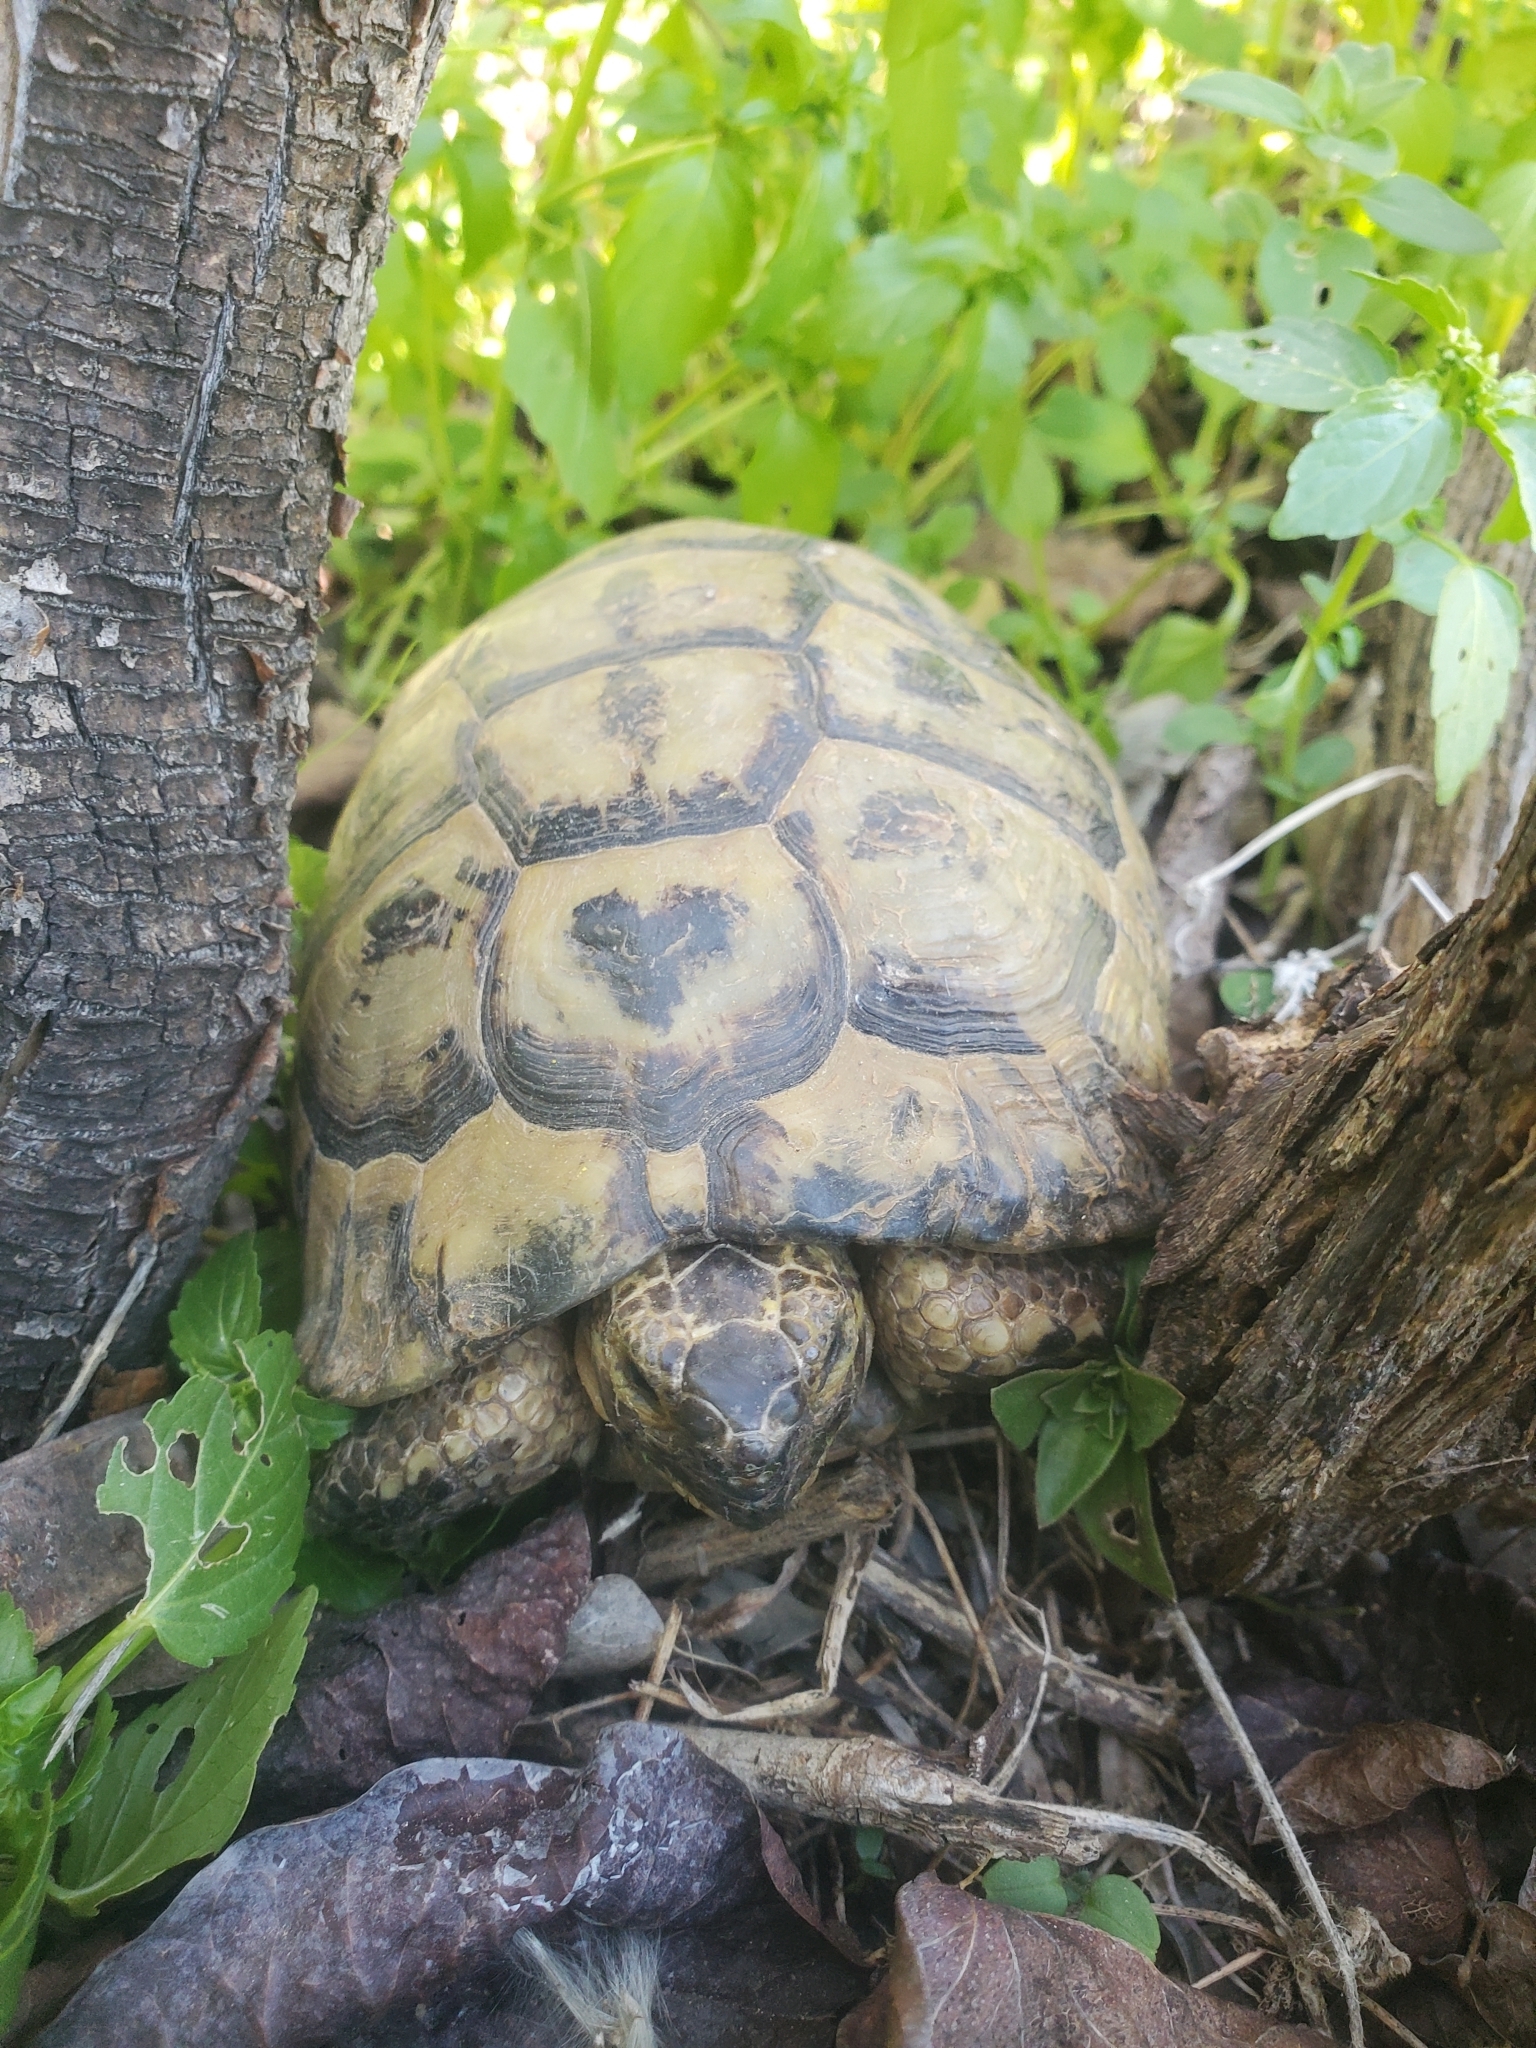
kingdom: Animalia
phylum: Chordata
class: Testudines
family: Testudinidae
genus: Testudo
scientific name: Testudo graeca
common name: Common tortoise
